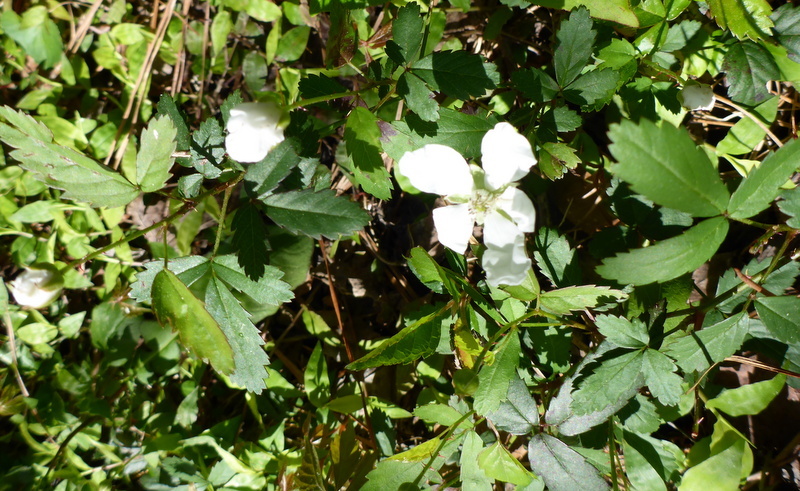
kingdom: Plantae
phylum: Tracheophyta
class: Magnoliopsida
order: Rosales
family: Rosaceae
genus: Rubus
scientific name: Rubus trivialis
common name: Southern dewberry
